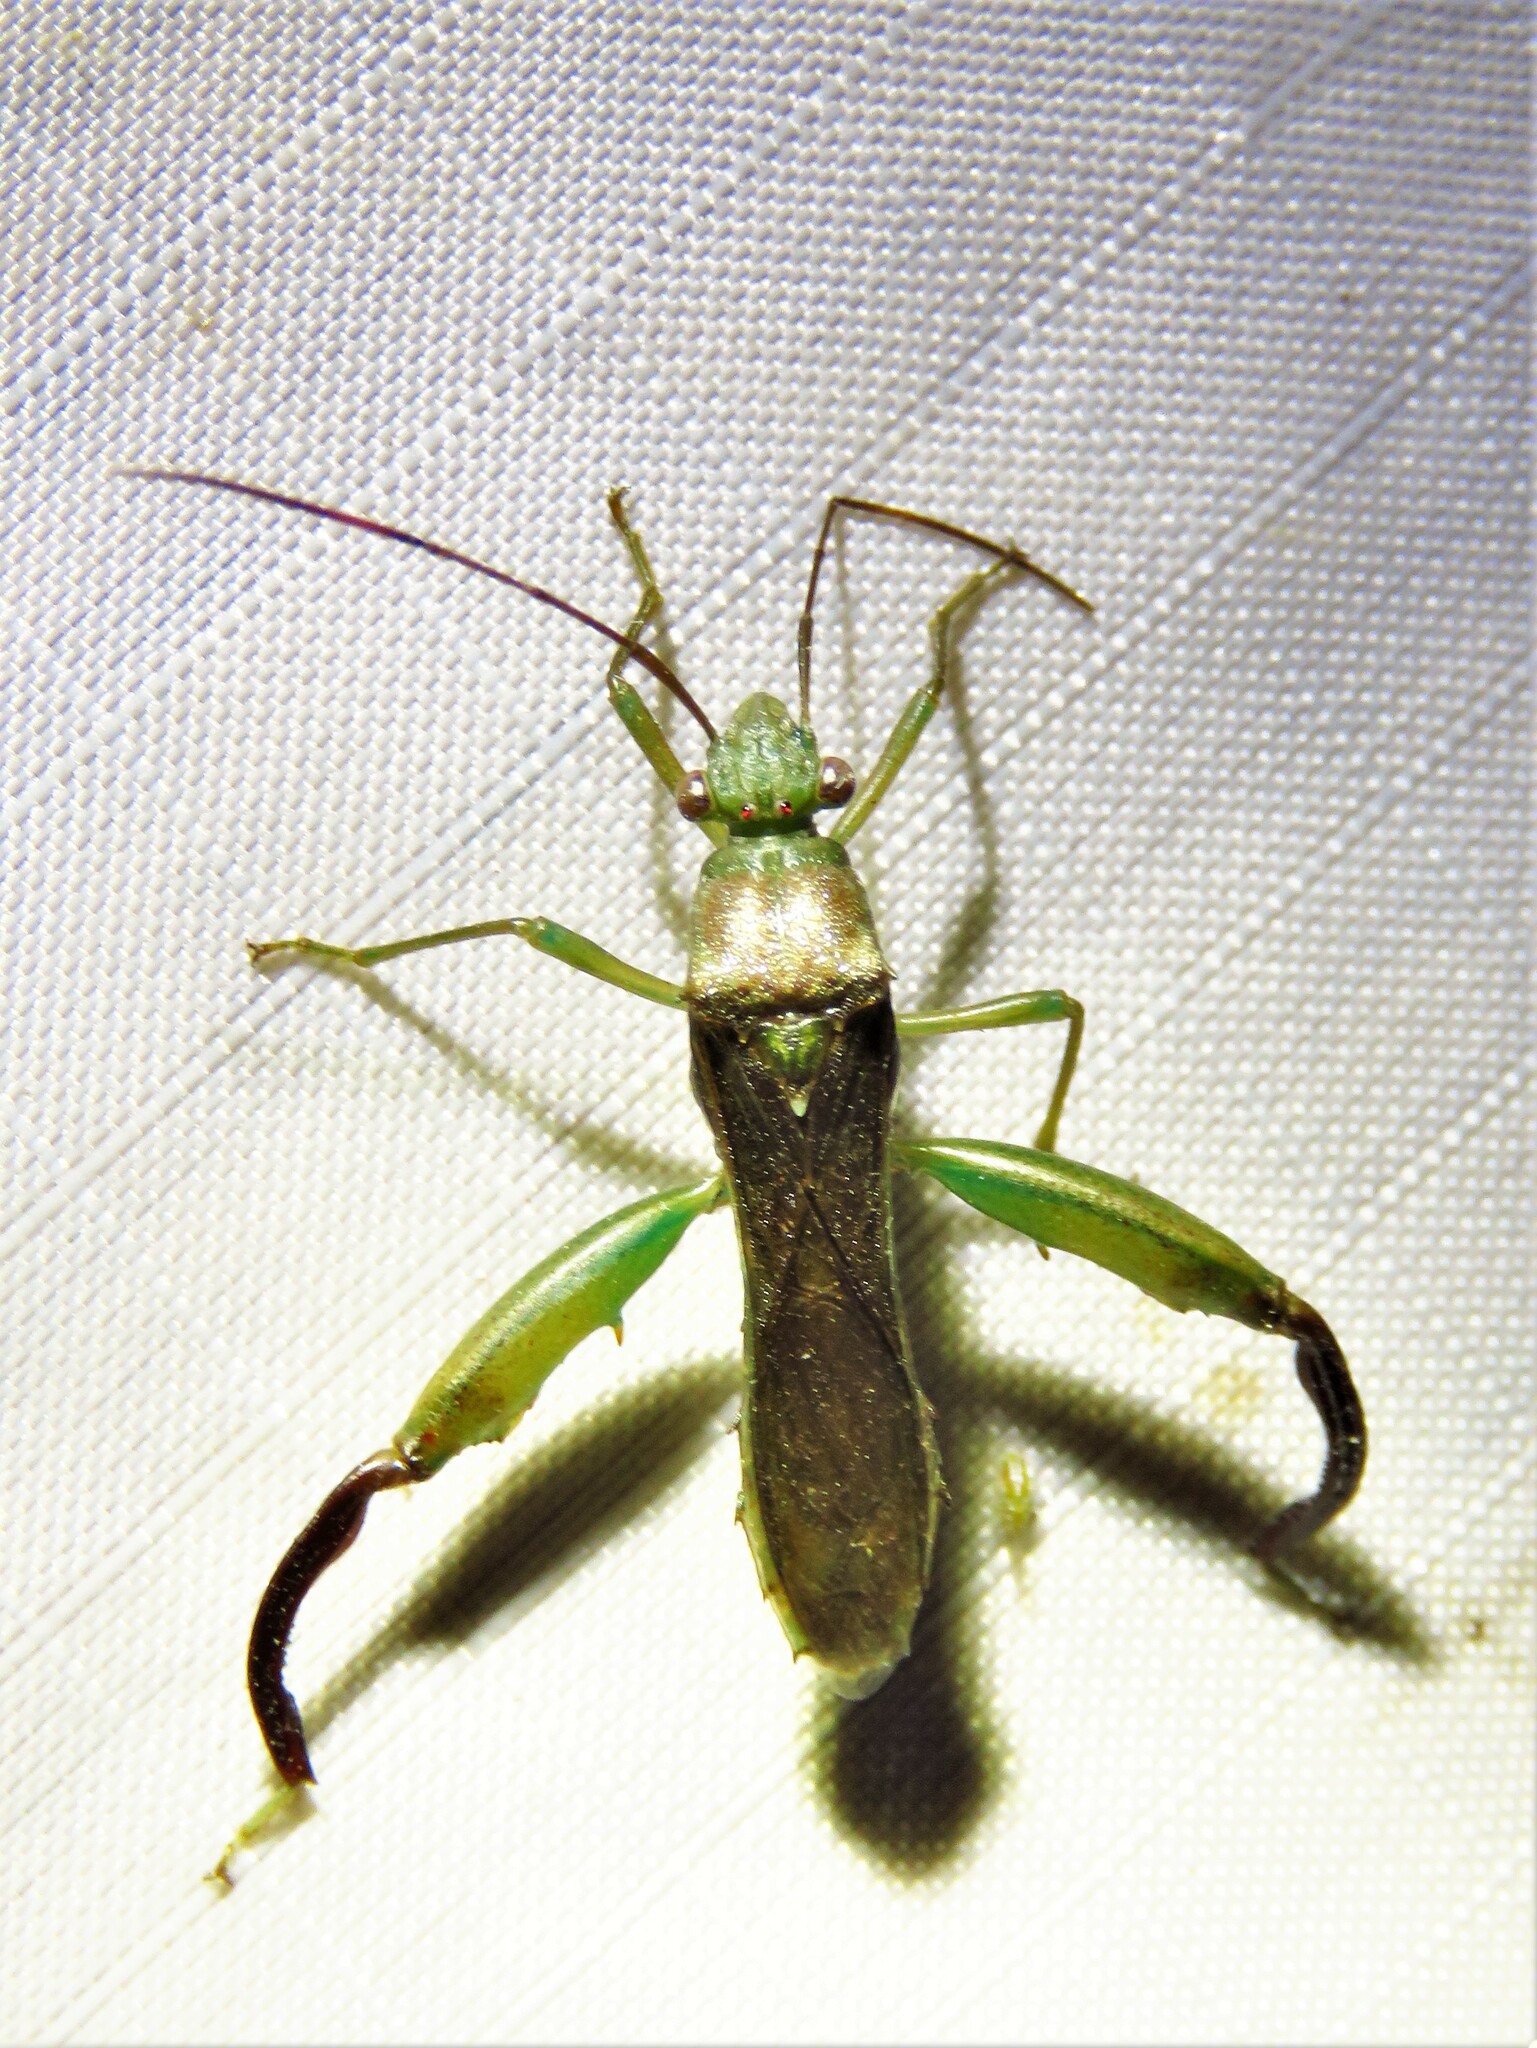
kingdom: Animalia
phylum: Arthropoda
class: Insecta
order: Hemiptera
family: Alydidae
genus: Hyalymenus
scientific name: Hyalymenus tarsatus
